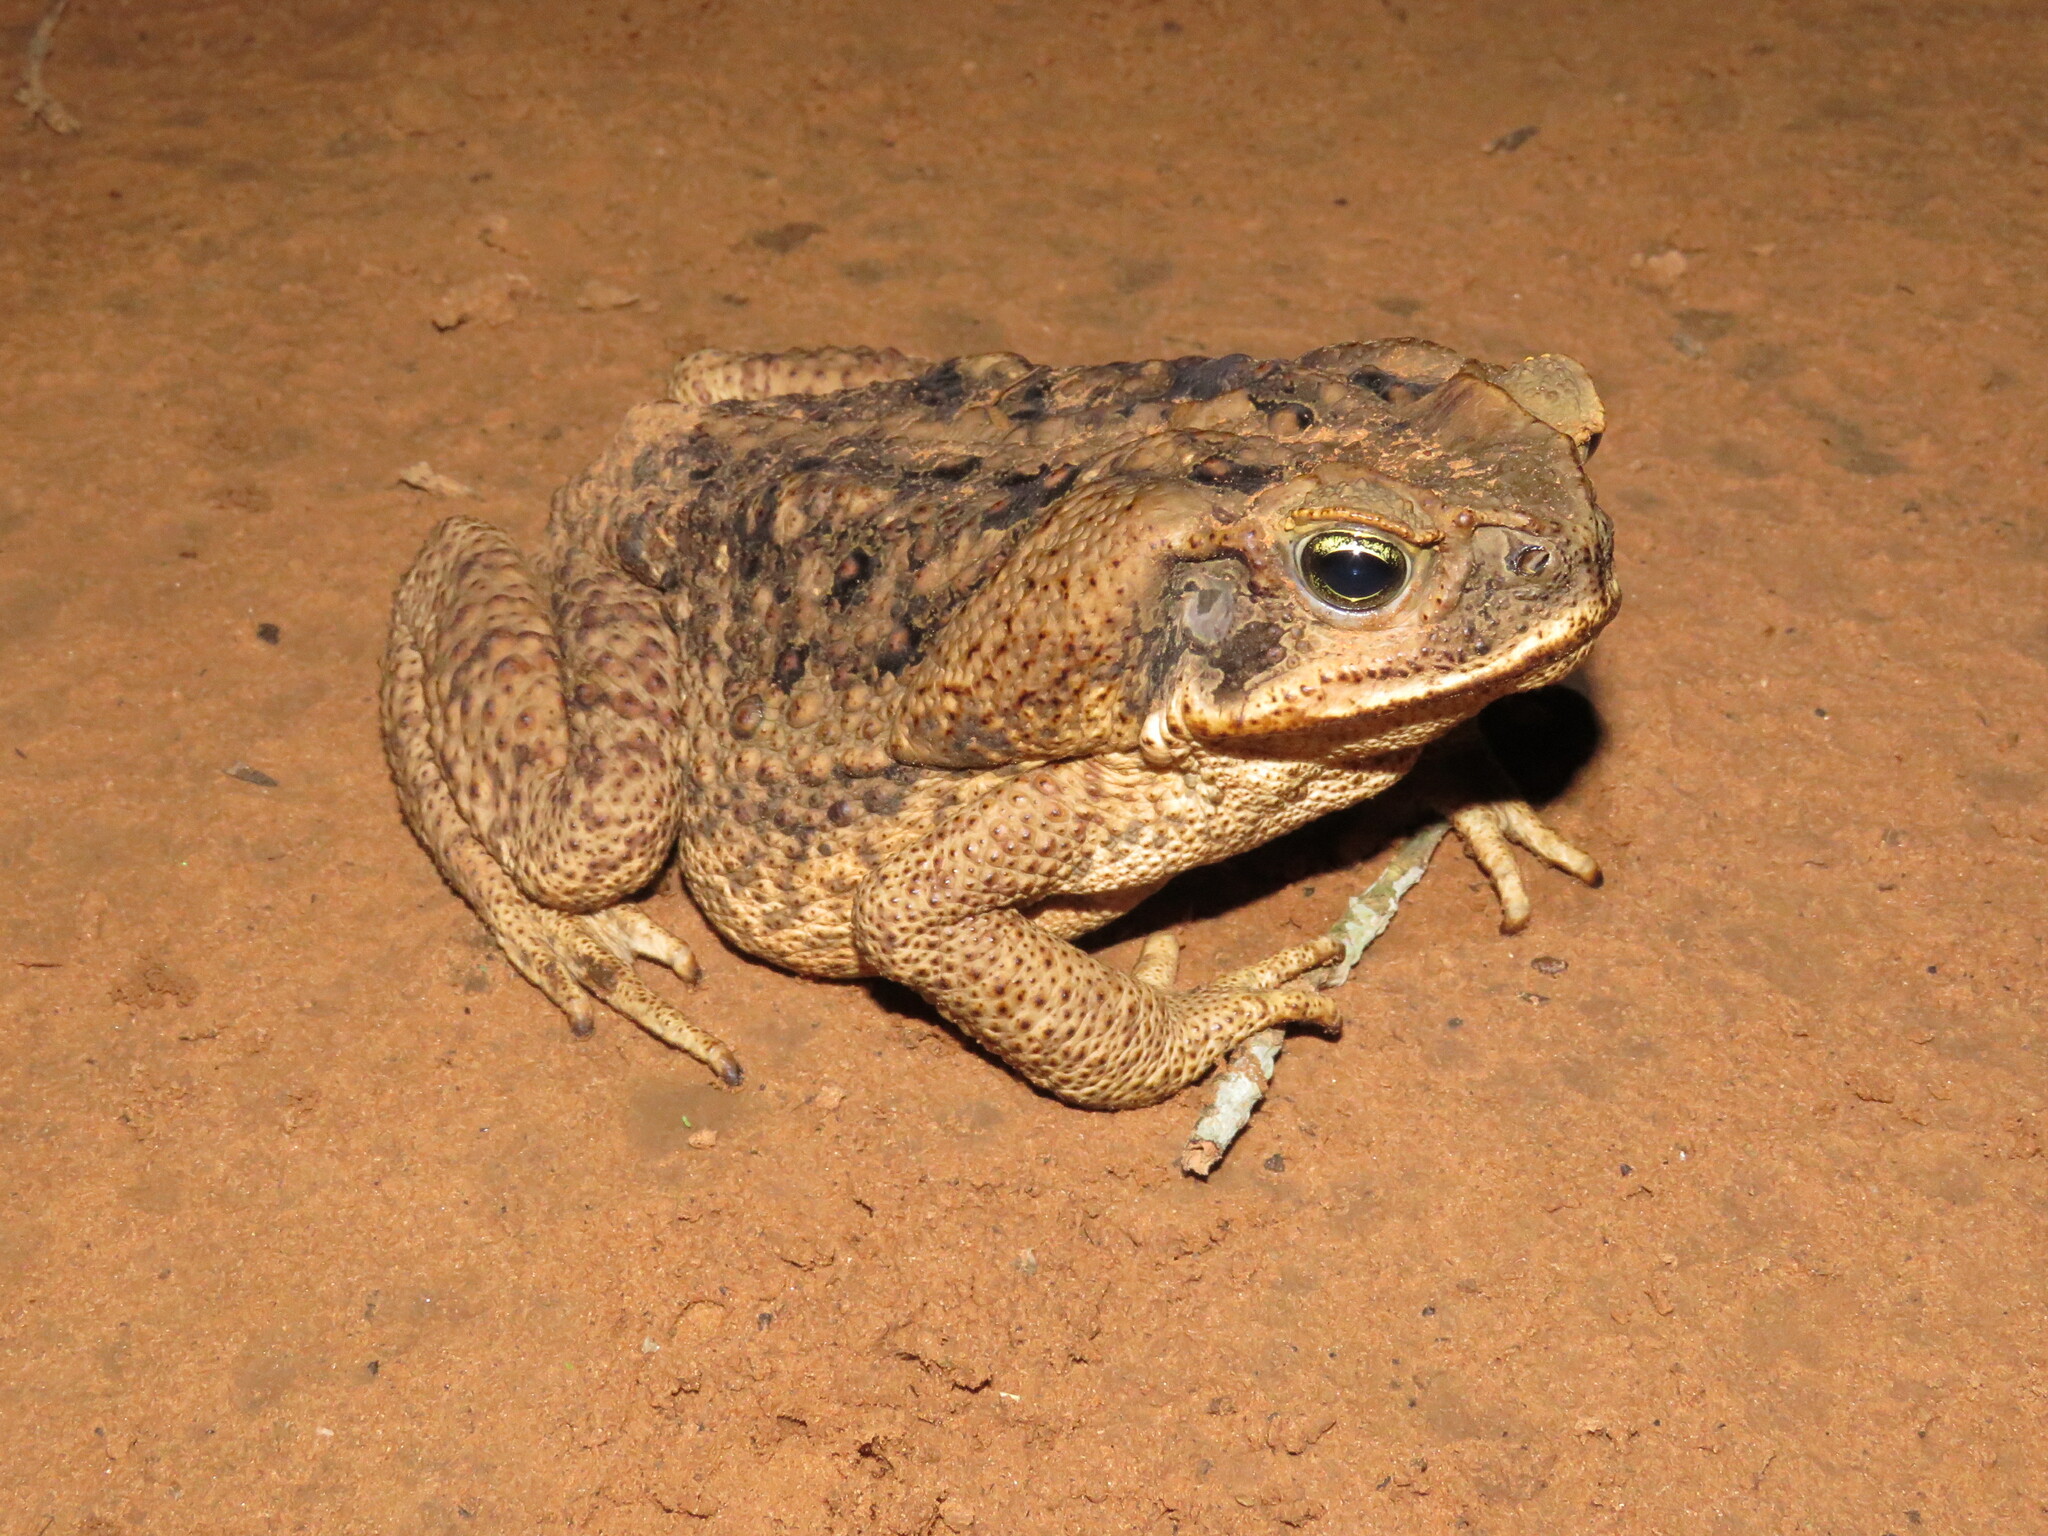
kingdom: Animalia
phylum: Chordata
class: Amphibia
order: Anura
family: Bufonidae
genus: Rhinella
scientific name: Rhinella diptycha
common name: Cope's toad
